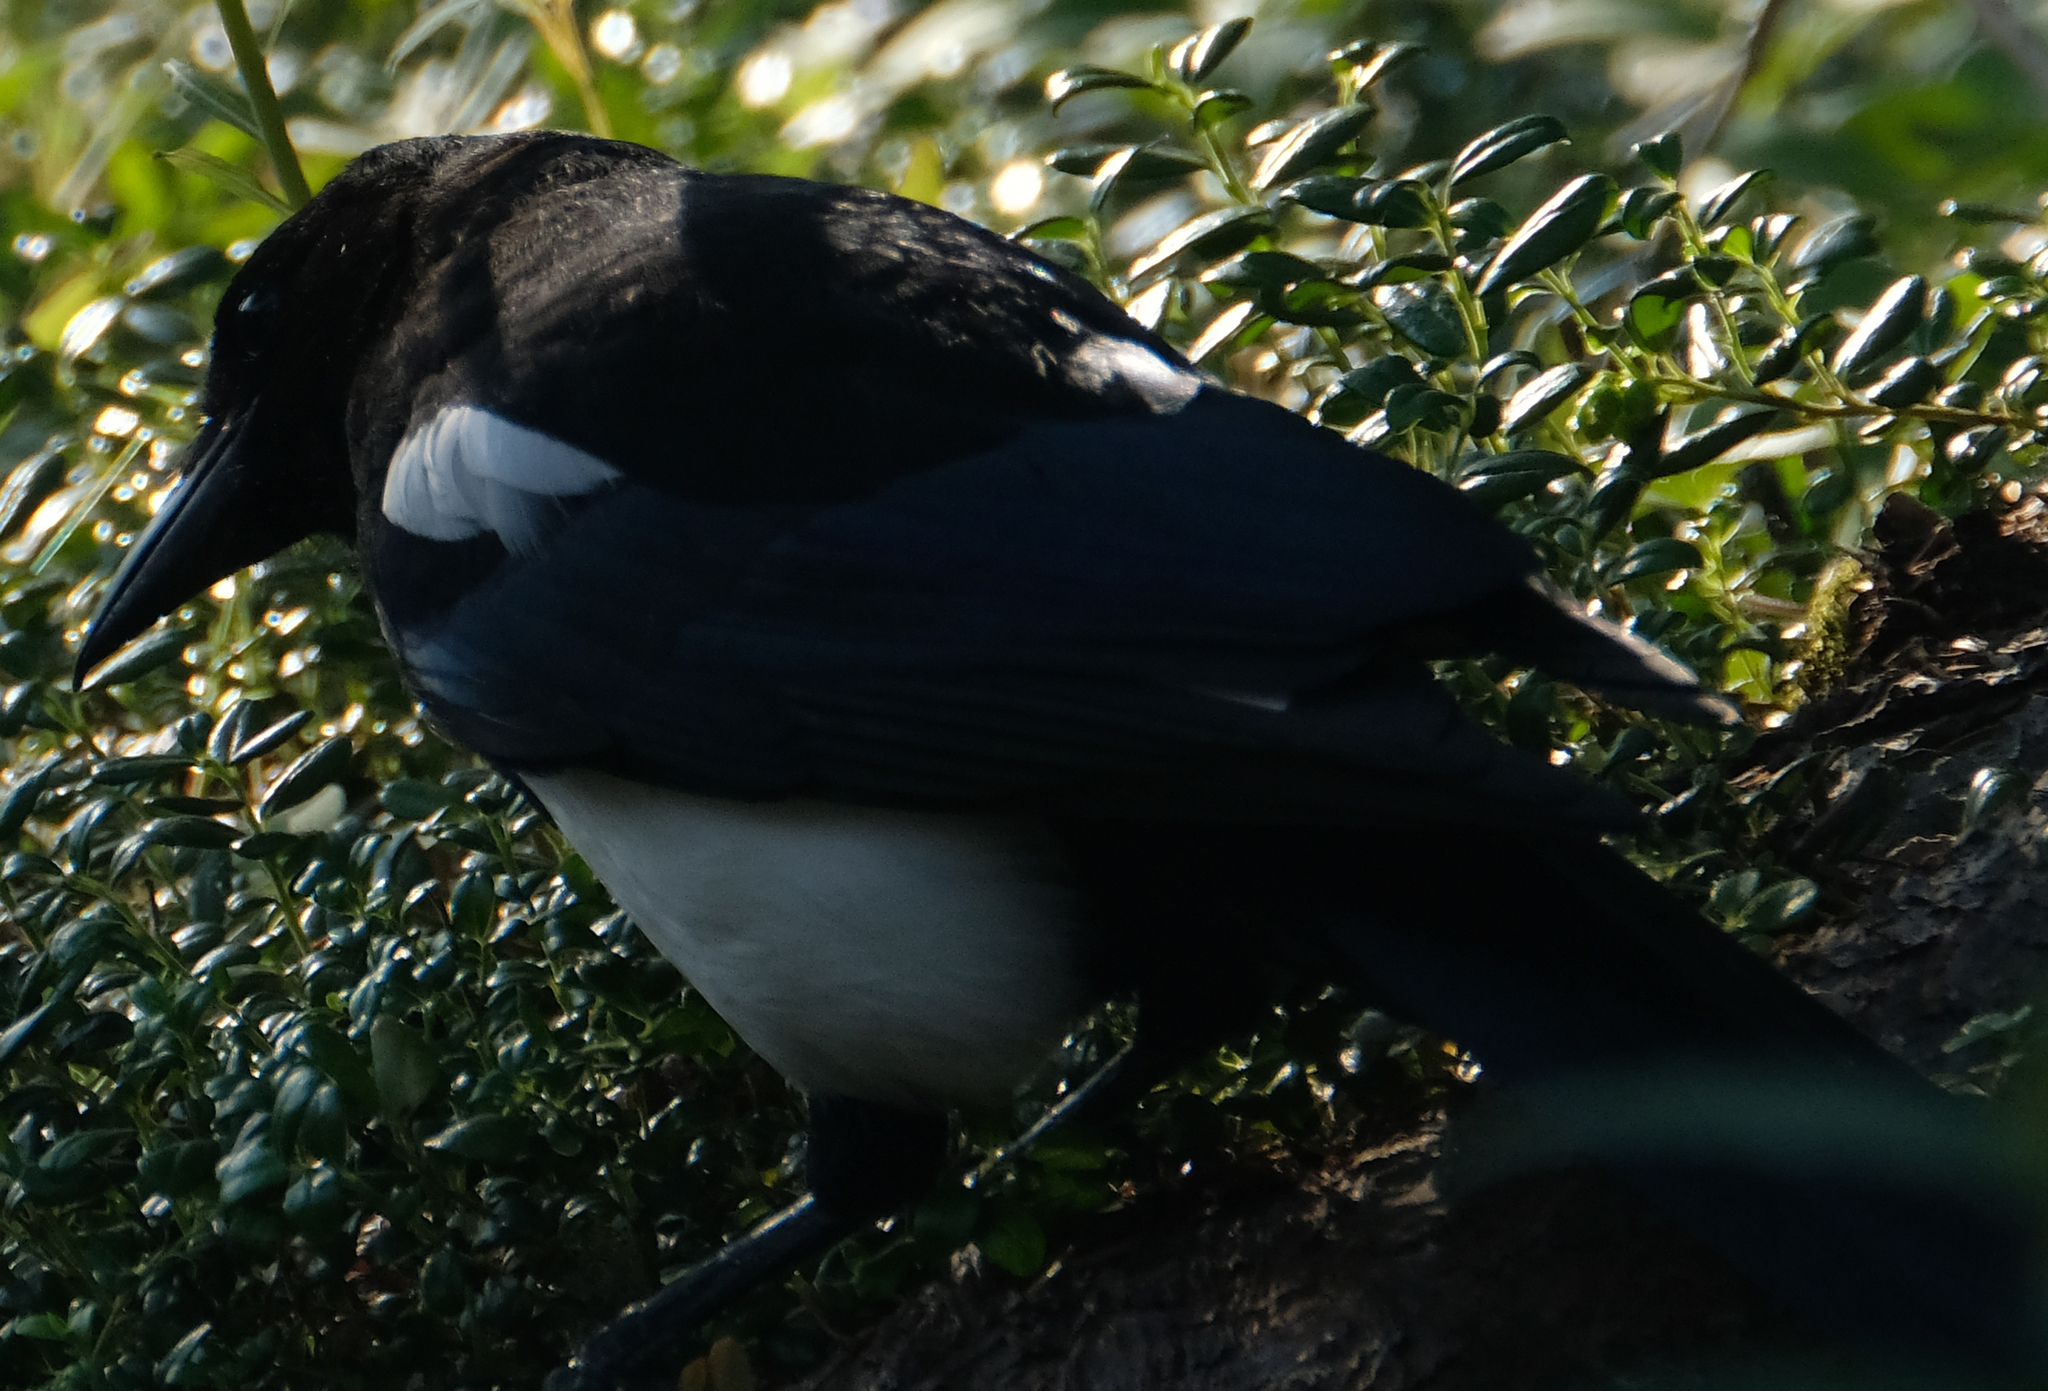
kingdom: Animalia
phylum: Chordata
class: Aves
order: Passeriformes
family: Corvidae
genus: Pica
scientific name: Pica hudsonia
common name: Black-billed magpie
